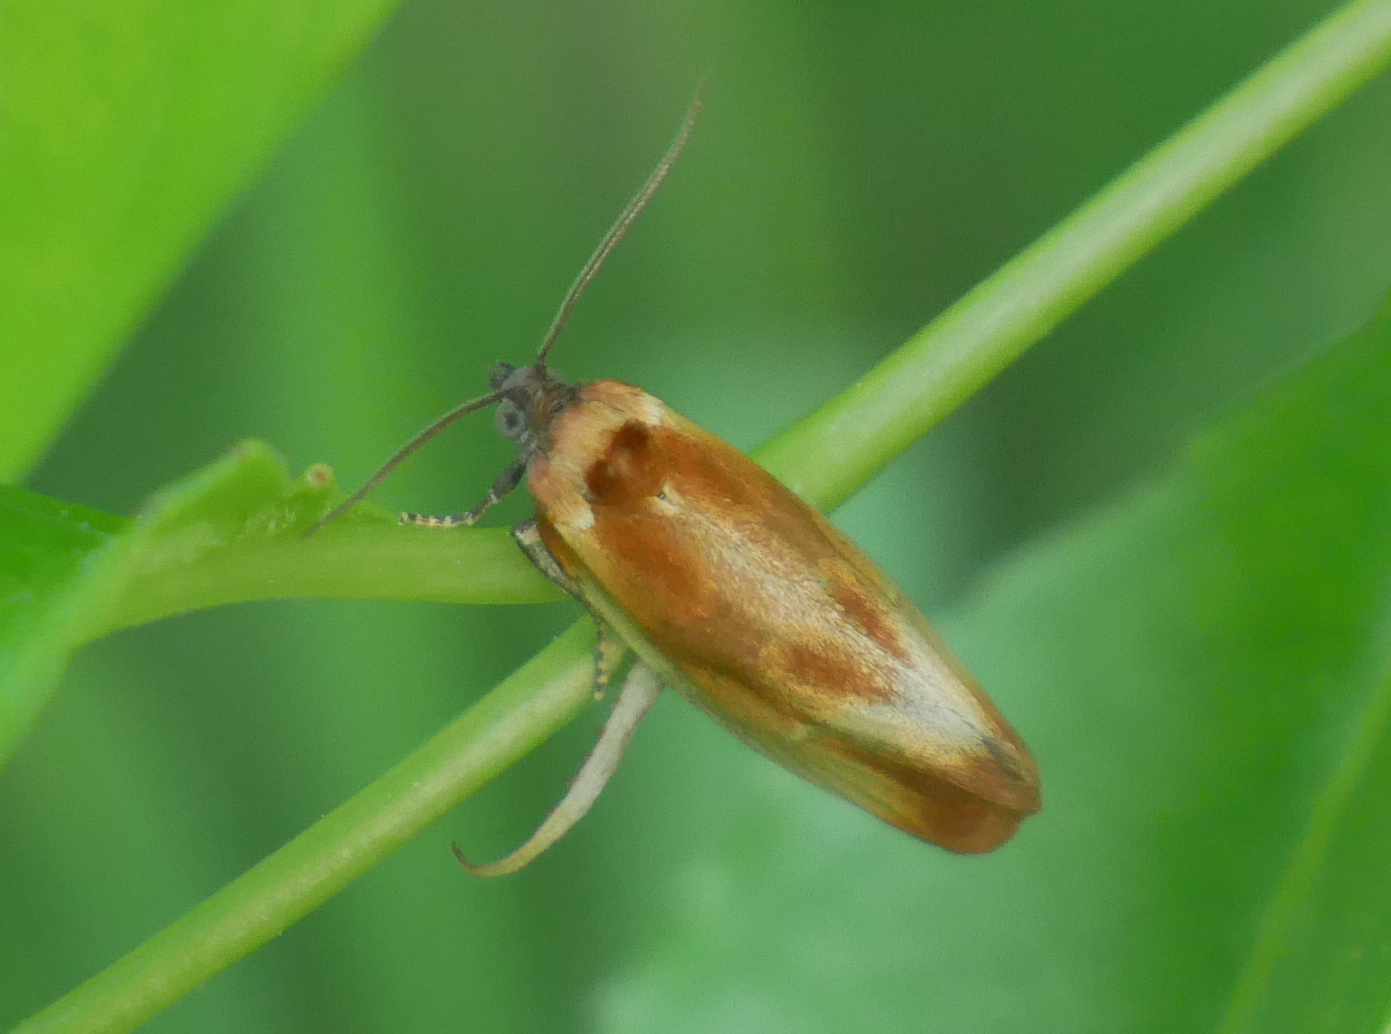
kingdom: Animalia
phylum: Arthropoda
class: Insecta
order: Lepidoptera
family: Tortricidae
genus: Eulia
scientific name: Eulia ministrana
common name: Brassy twist
